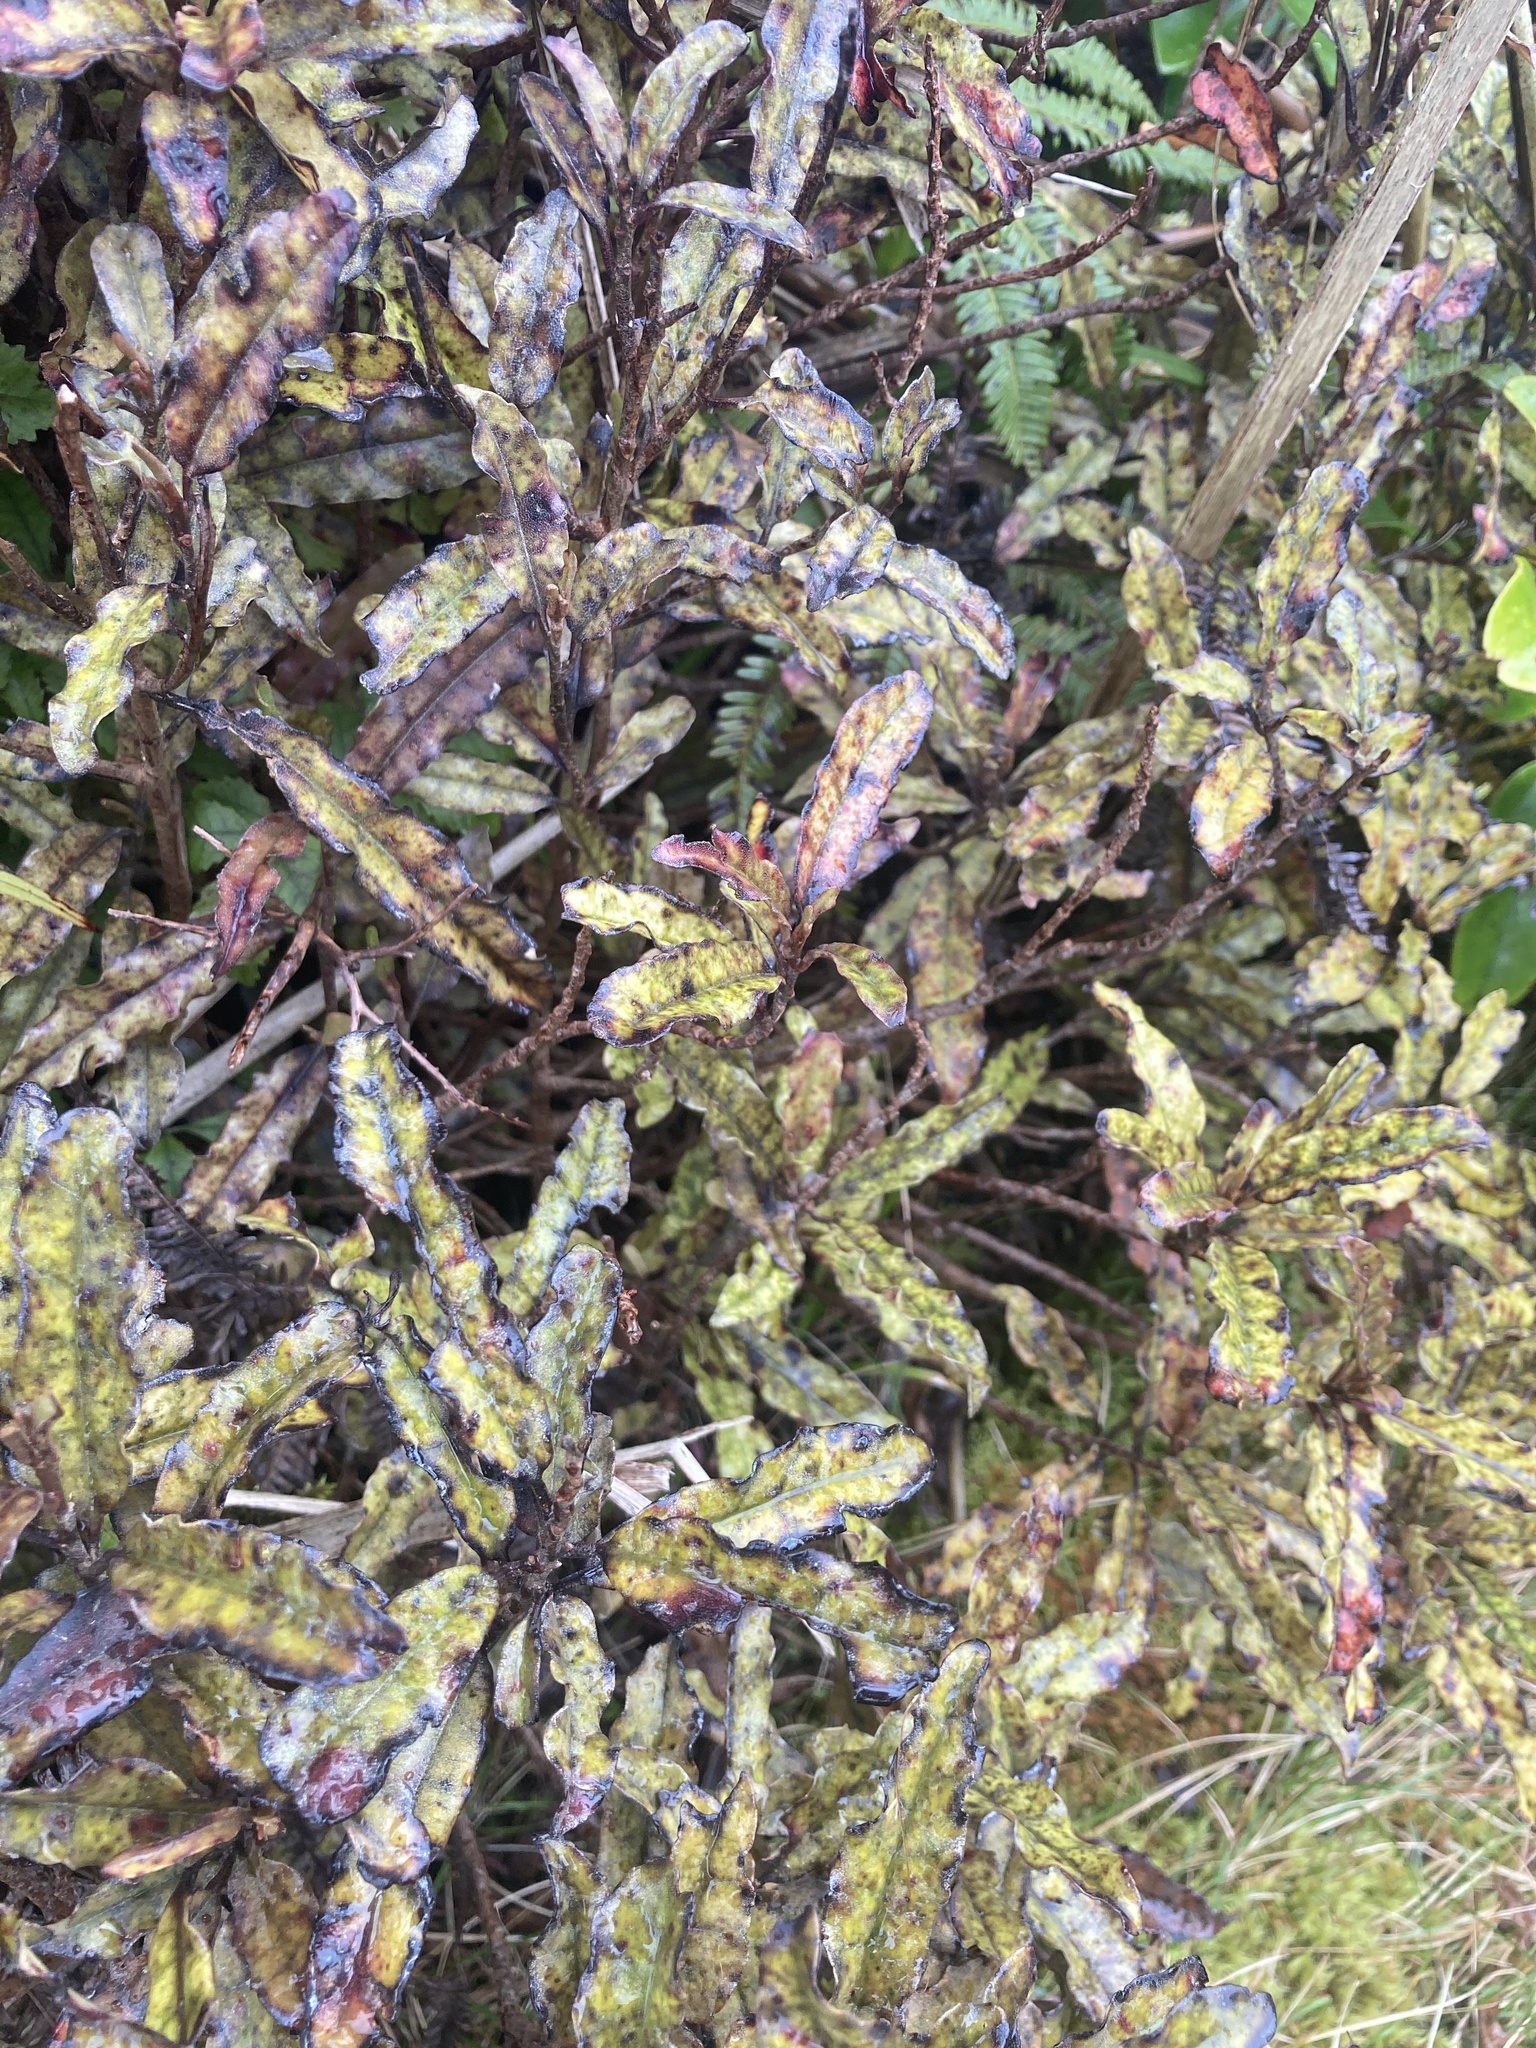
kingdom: Plantae
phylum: Tracheophyta
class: Magnoliopsida
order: Paracryphiales
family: Paracryphiaceae
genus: Quintinia
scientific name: Quintinia serrata
